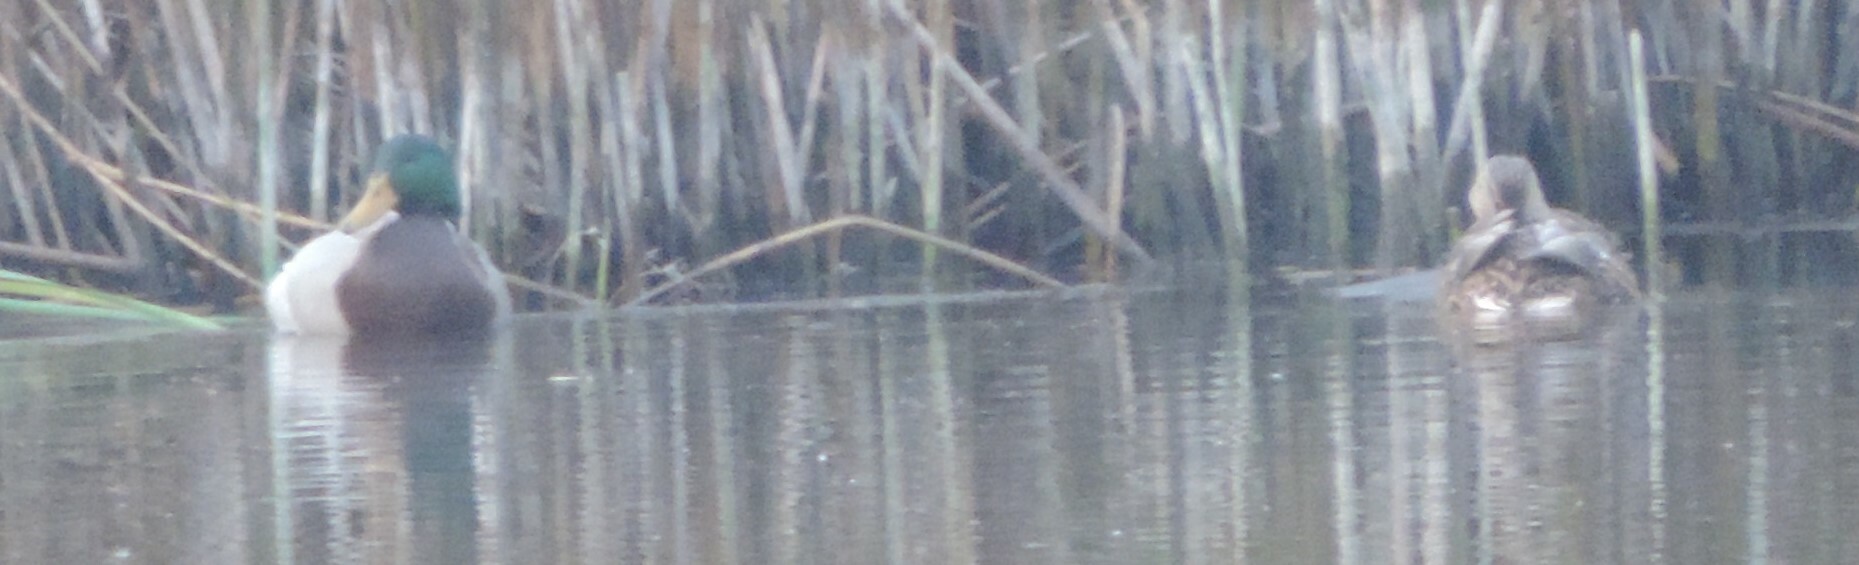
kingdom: Animalia
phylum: Chordata
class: Aves
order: Anseriformes
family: Anatidae
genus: Anas
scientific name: Anas platyrhynchos
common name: Mallard
